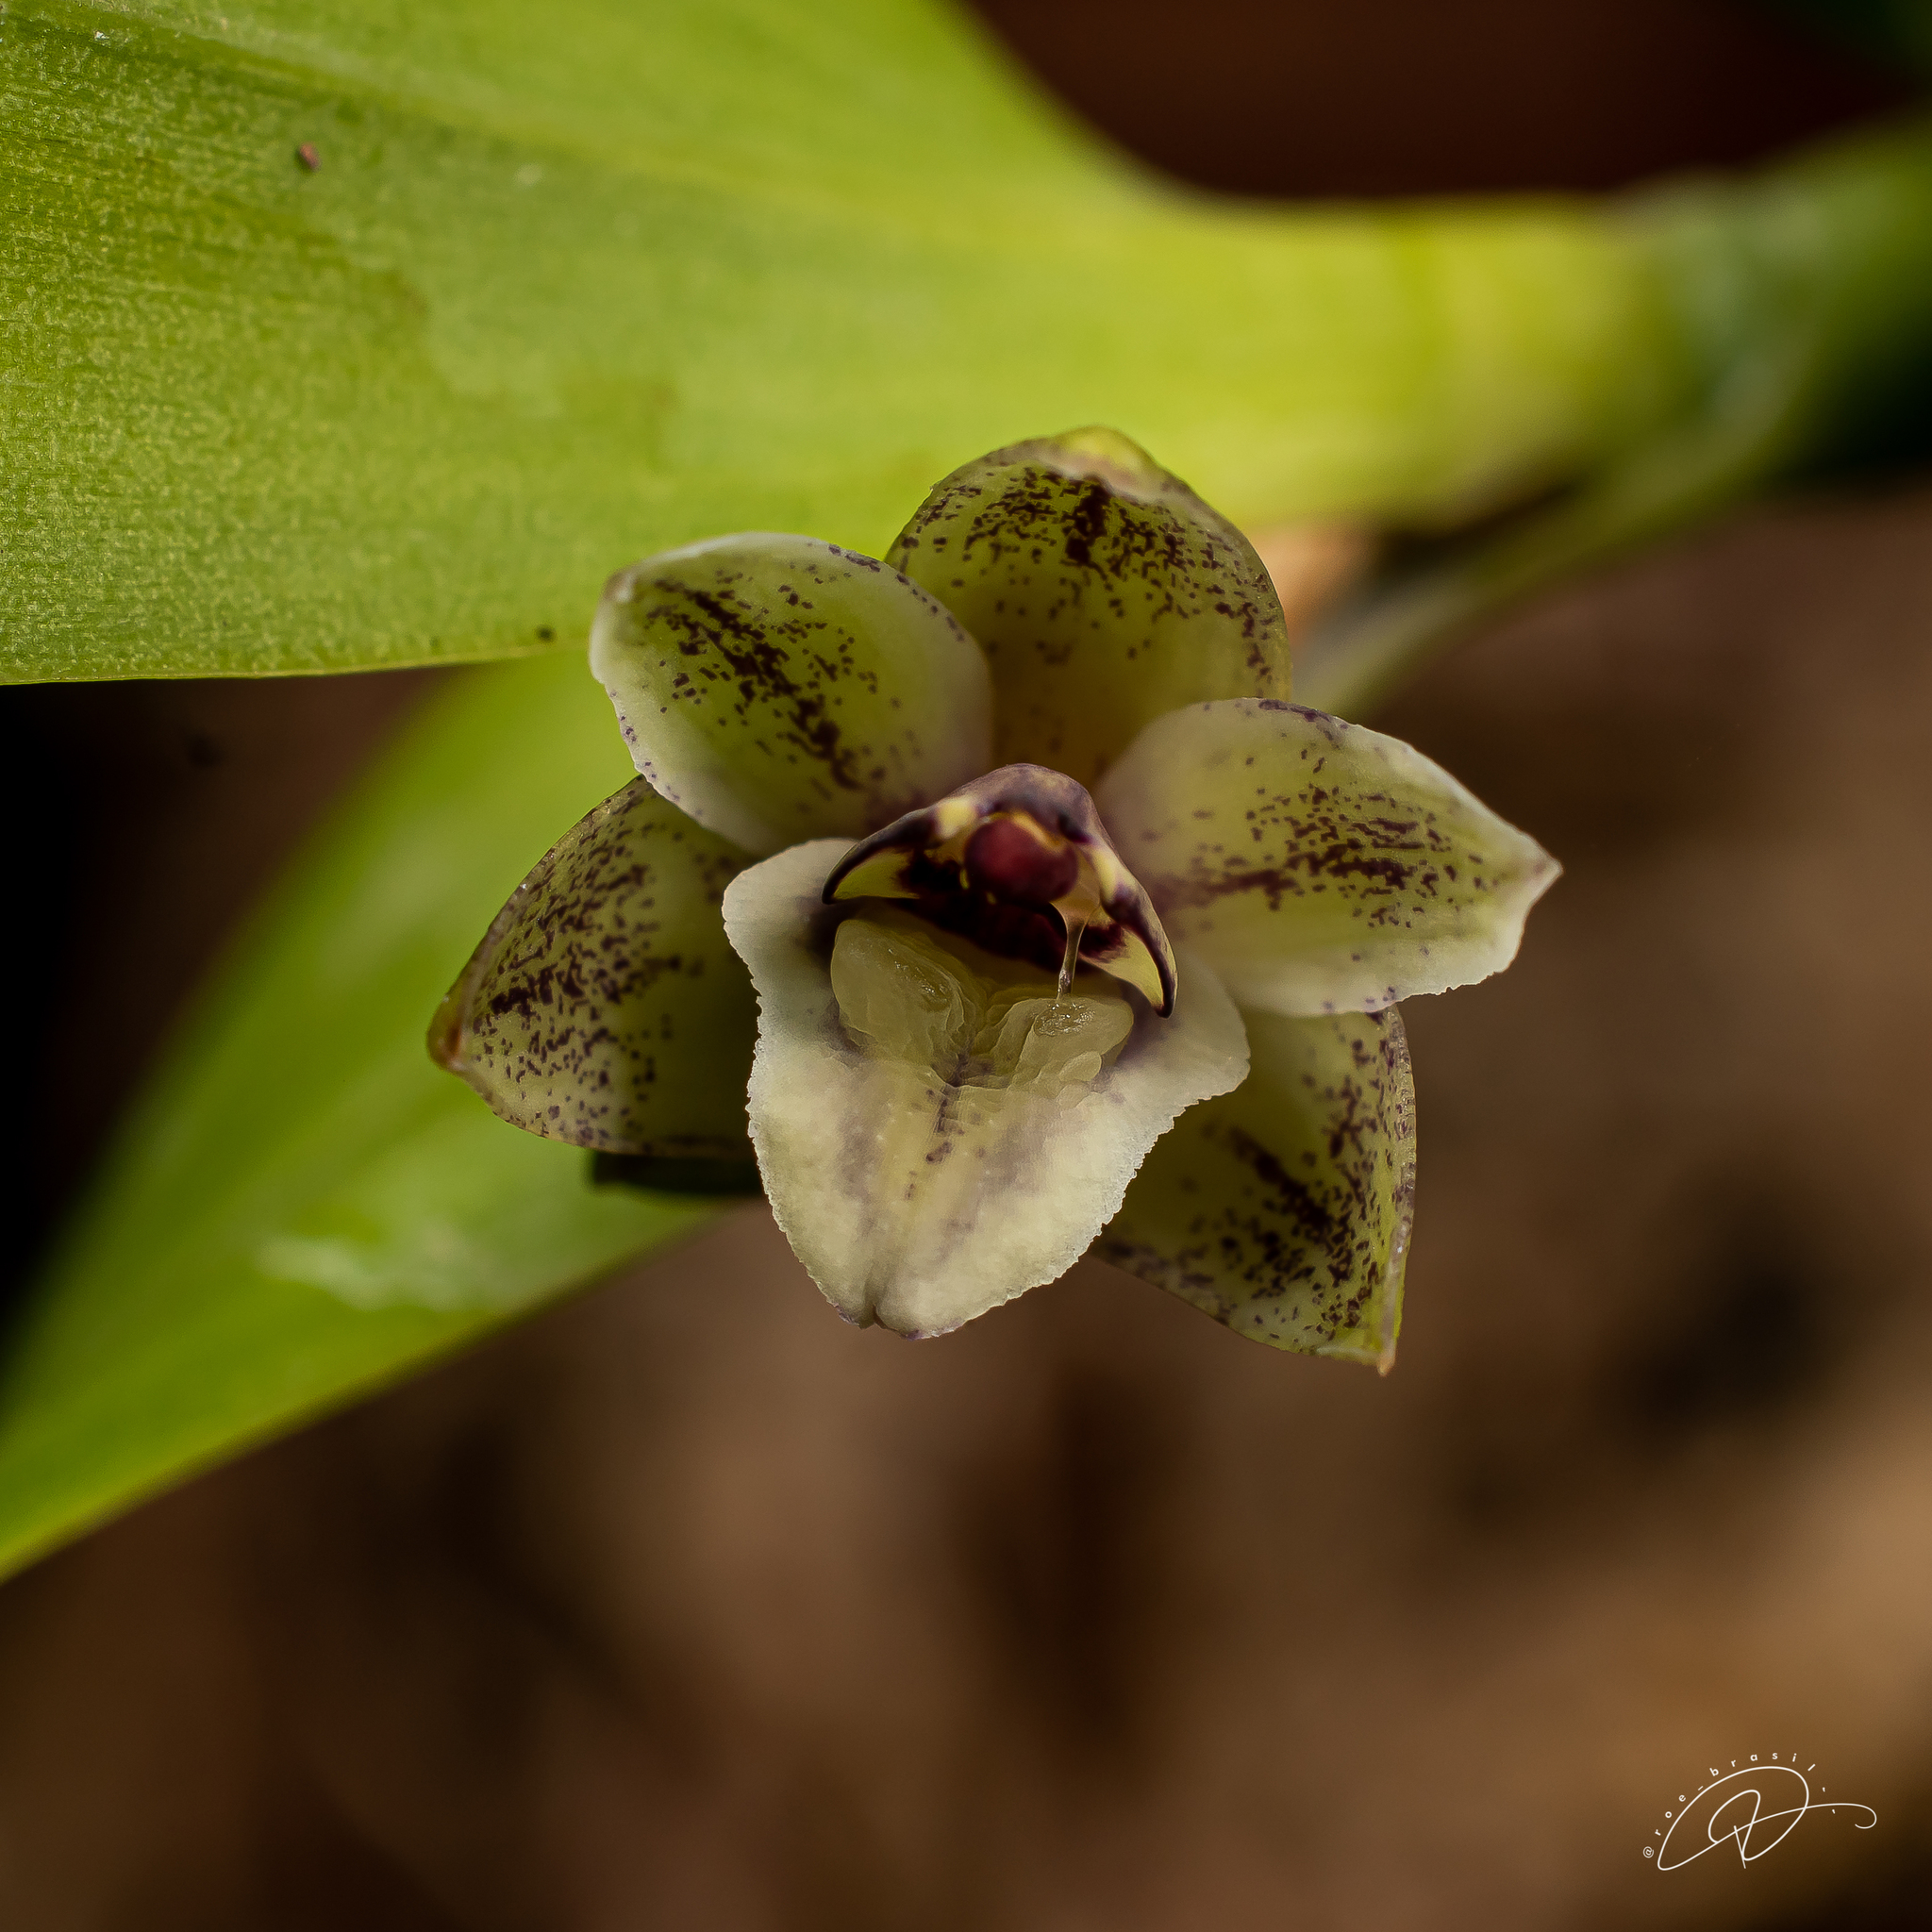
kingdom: Plantae
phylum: Tracheophyta
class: Liliopsida
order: Asparagales
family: Orchidaceae
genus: Scaphyglottis
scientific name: Scaphyglottis modesta
